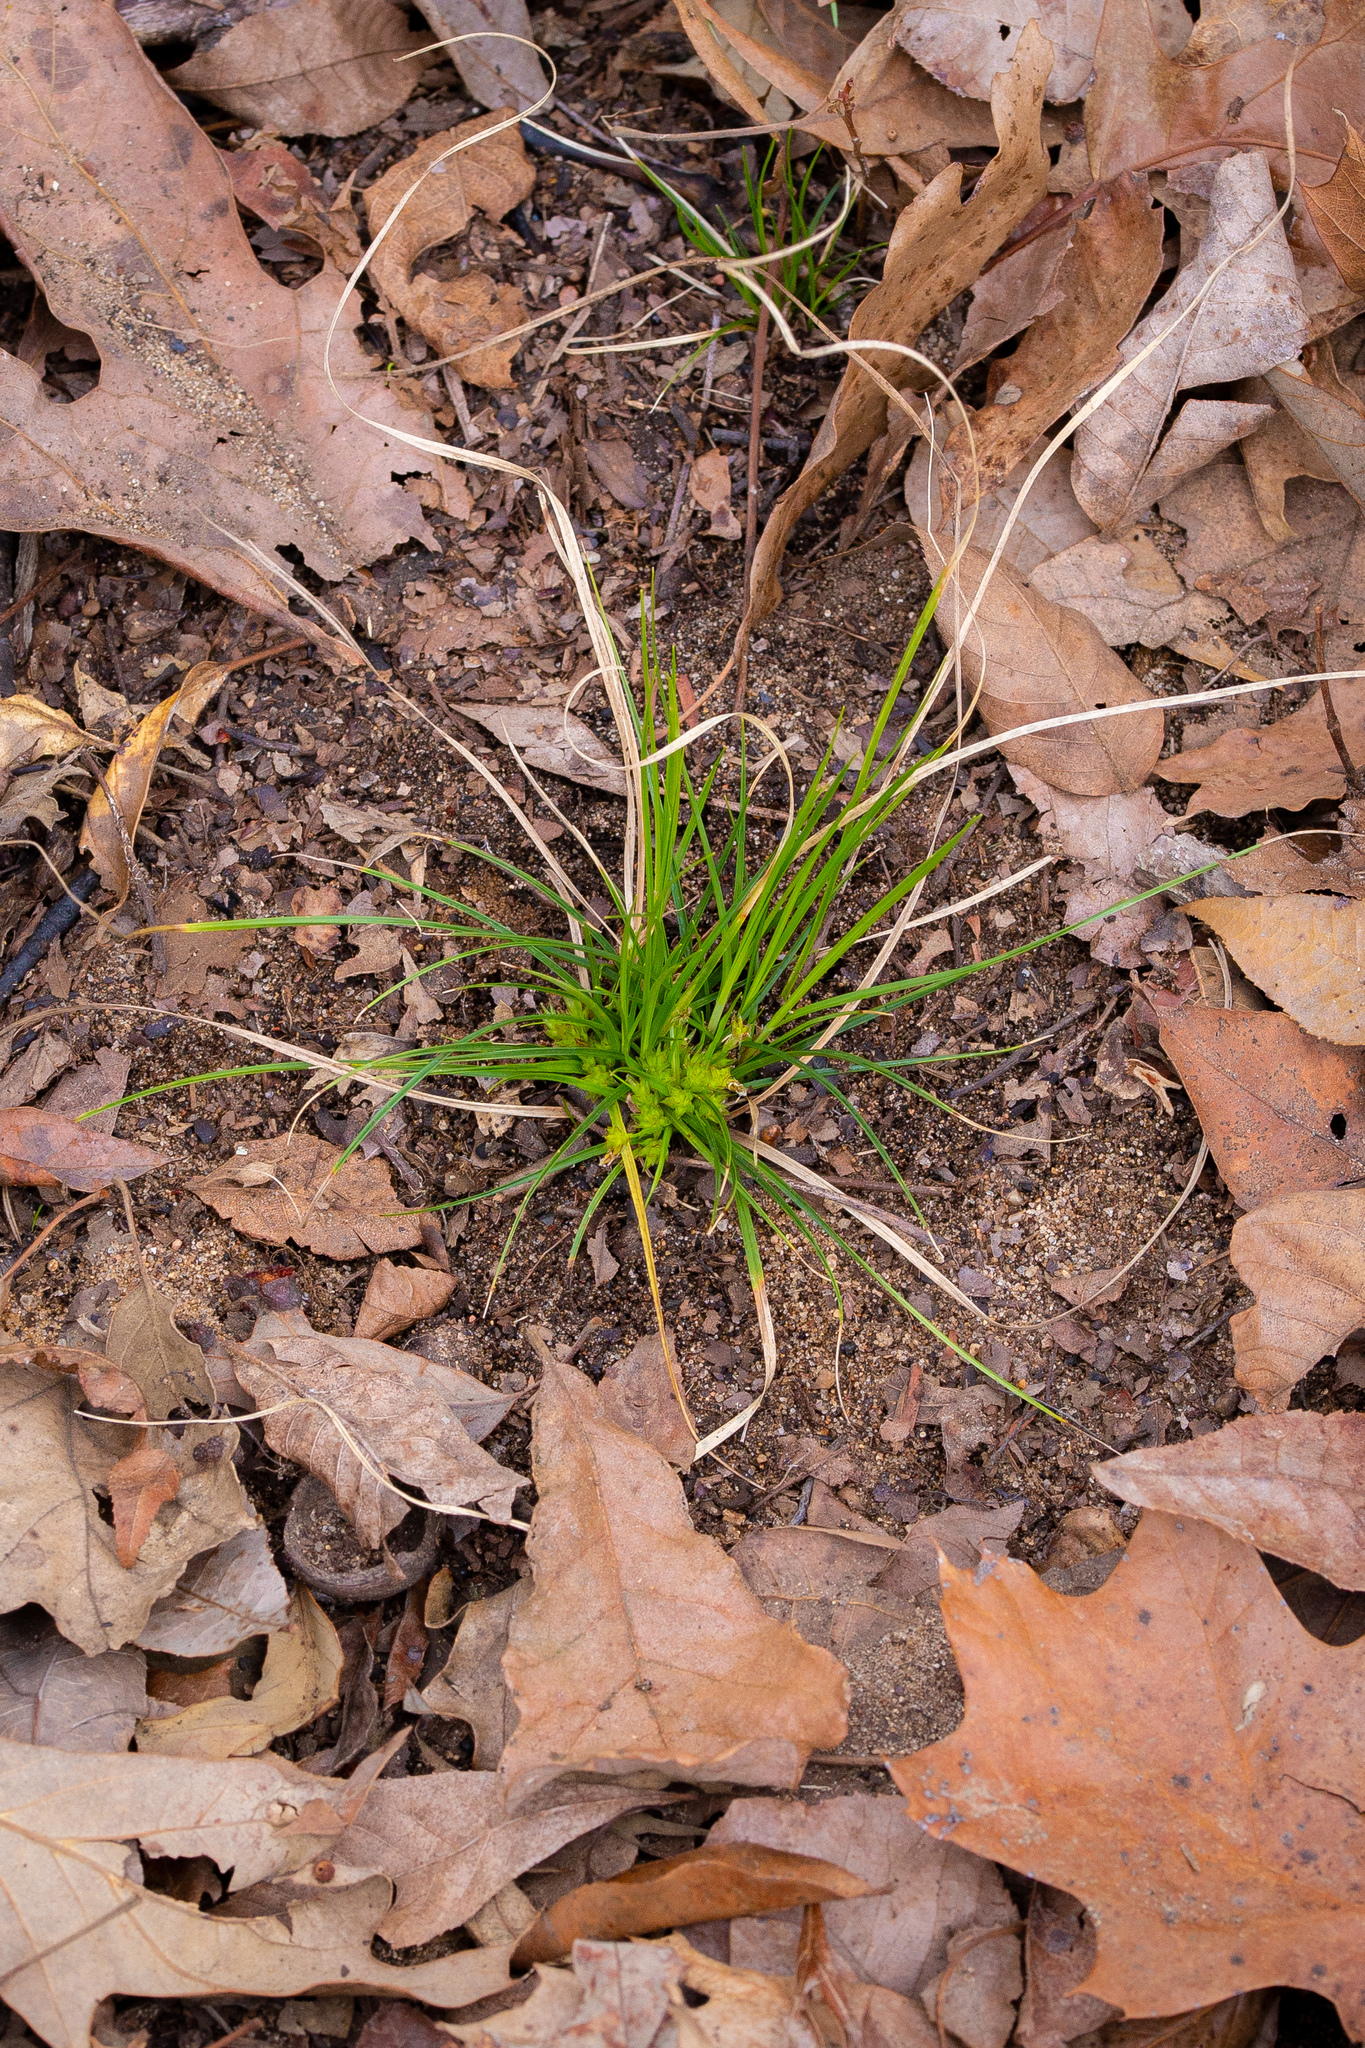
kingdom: Plantae
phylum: Tracheophyta
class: Liliopsida
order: Poales
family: Cyperaceae
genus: Carex
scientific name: Carex umbellata
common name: Early oak sedge
